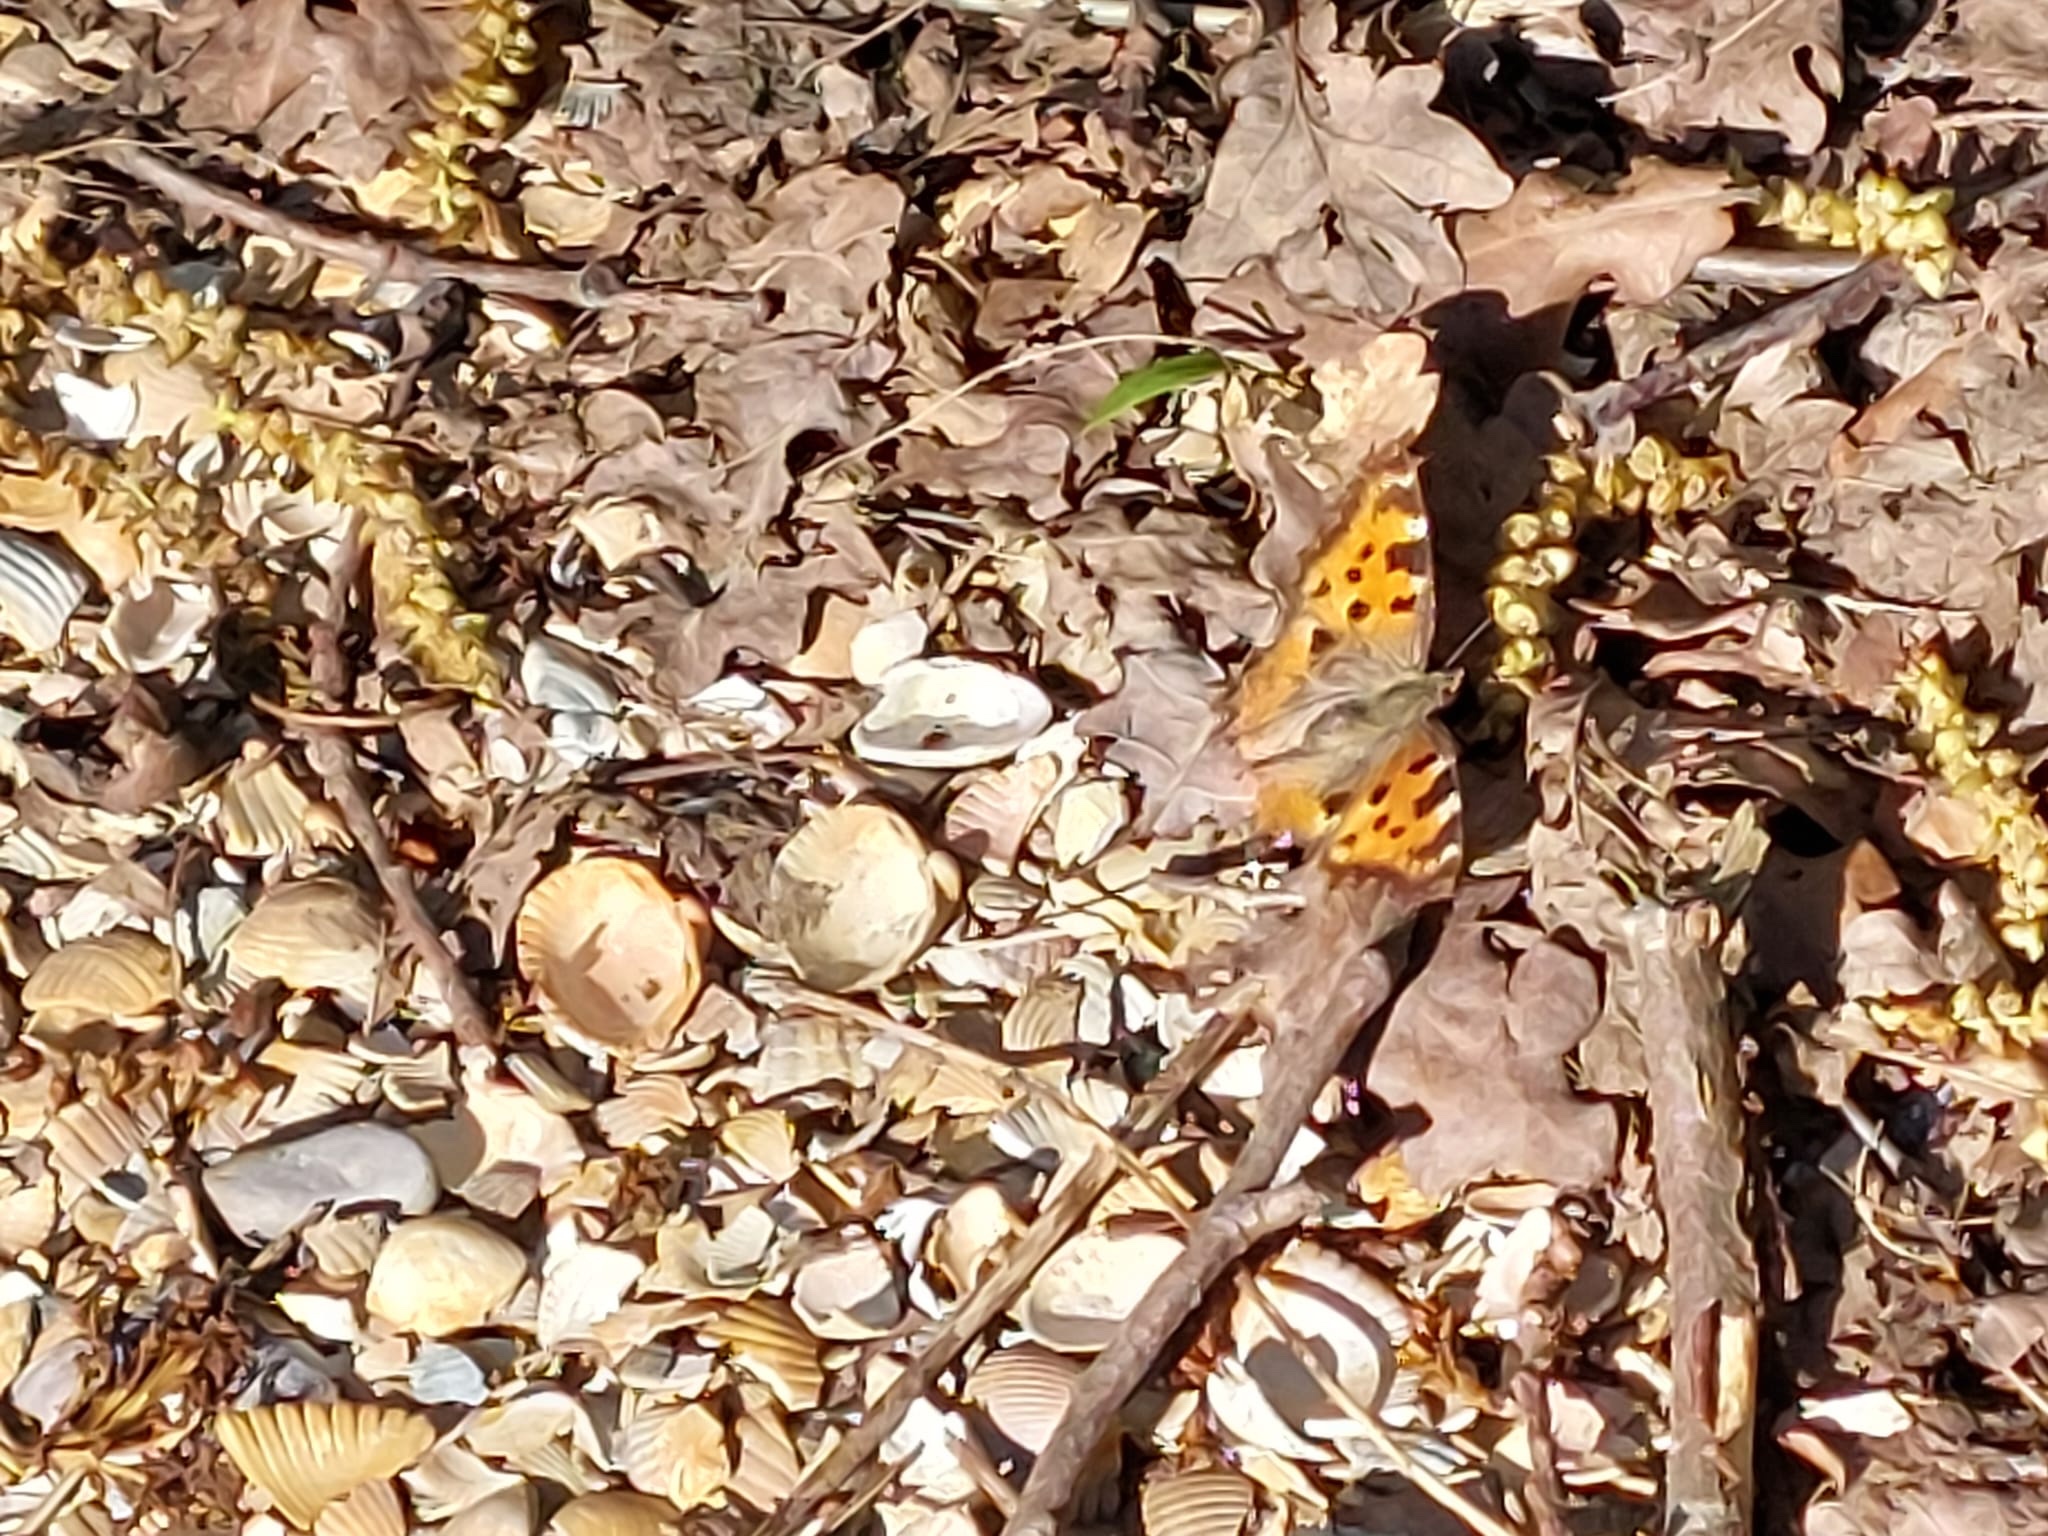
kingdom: Animalia
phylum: Arthropoda
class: Insecta
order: Lepidoptera
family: Nymphalidae
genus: Nymphalis
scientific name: Nymphalis polychloros
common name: Large tortoiseshell
